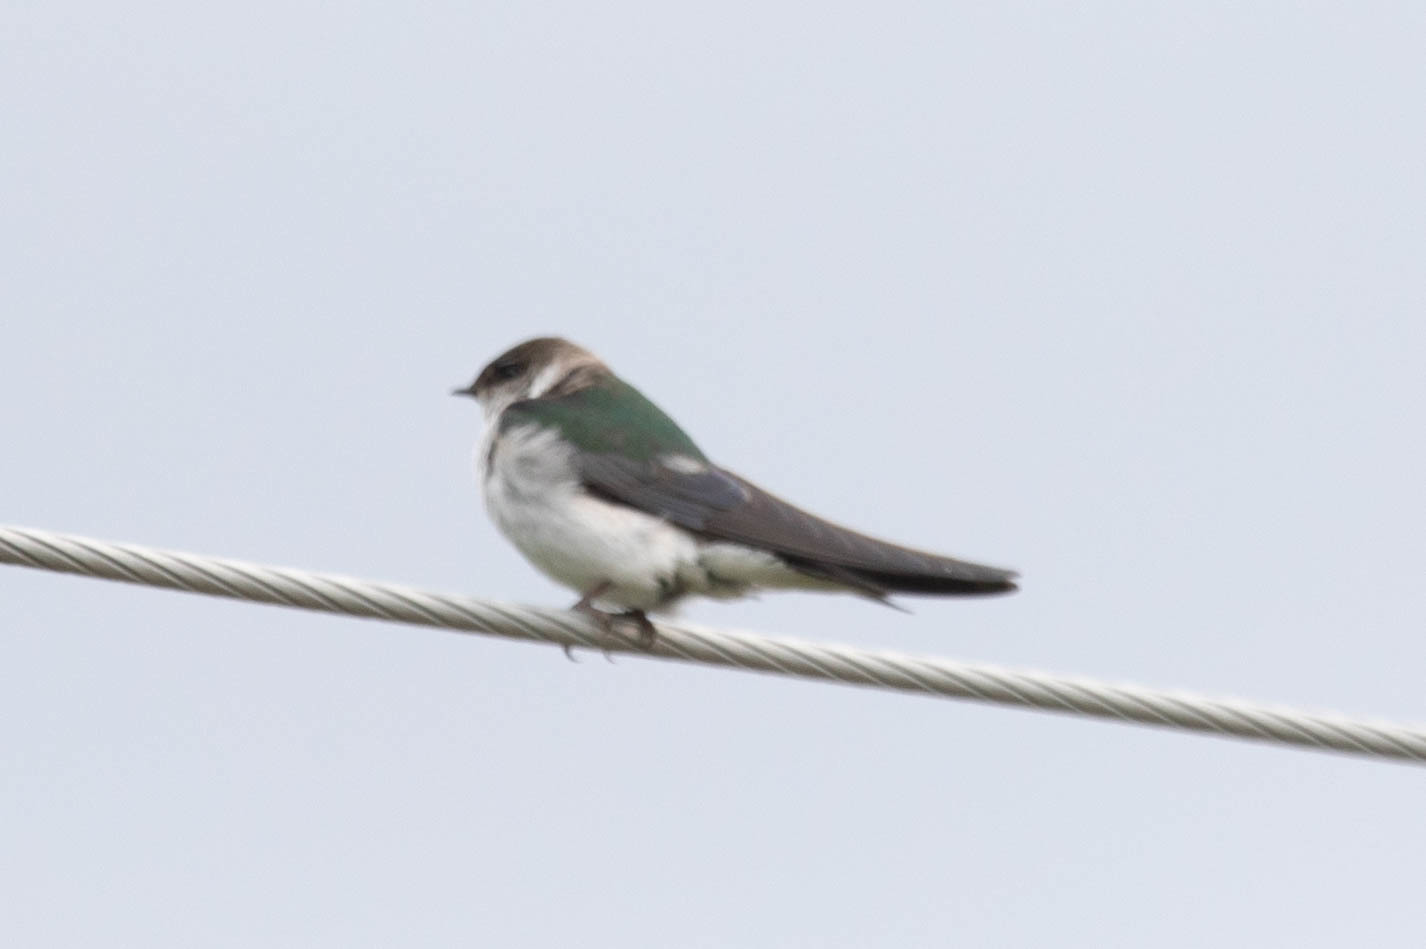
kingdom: Animalia
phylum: Chordata
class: Aves
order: Passeriformes
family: Hirundinidae
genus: Tachycineta
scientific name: Tachycineta thalassina
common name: Violet-green swallow
